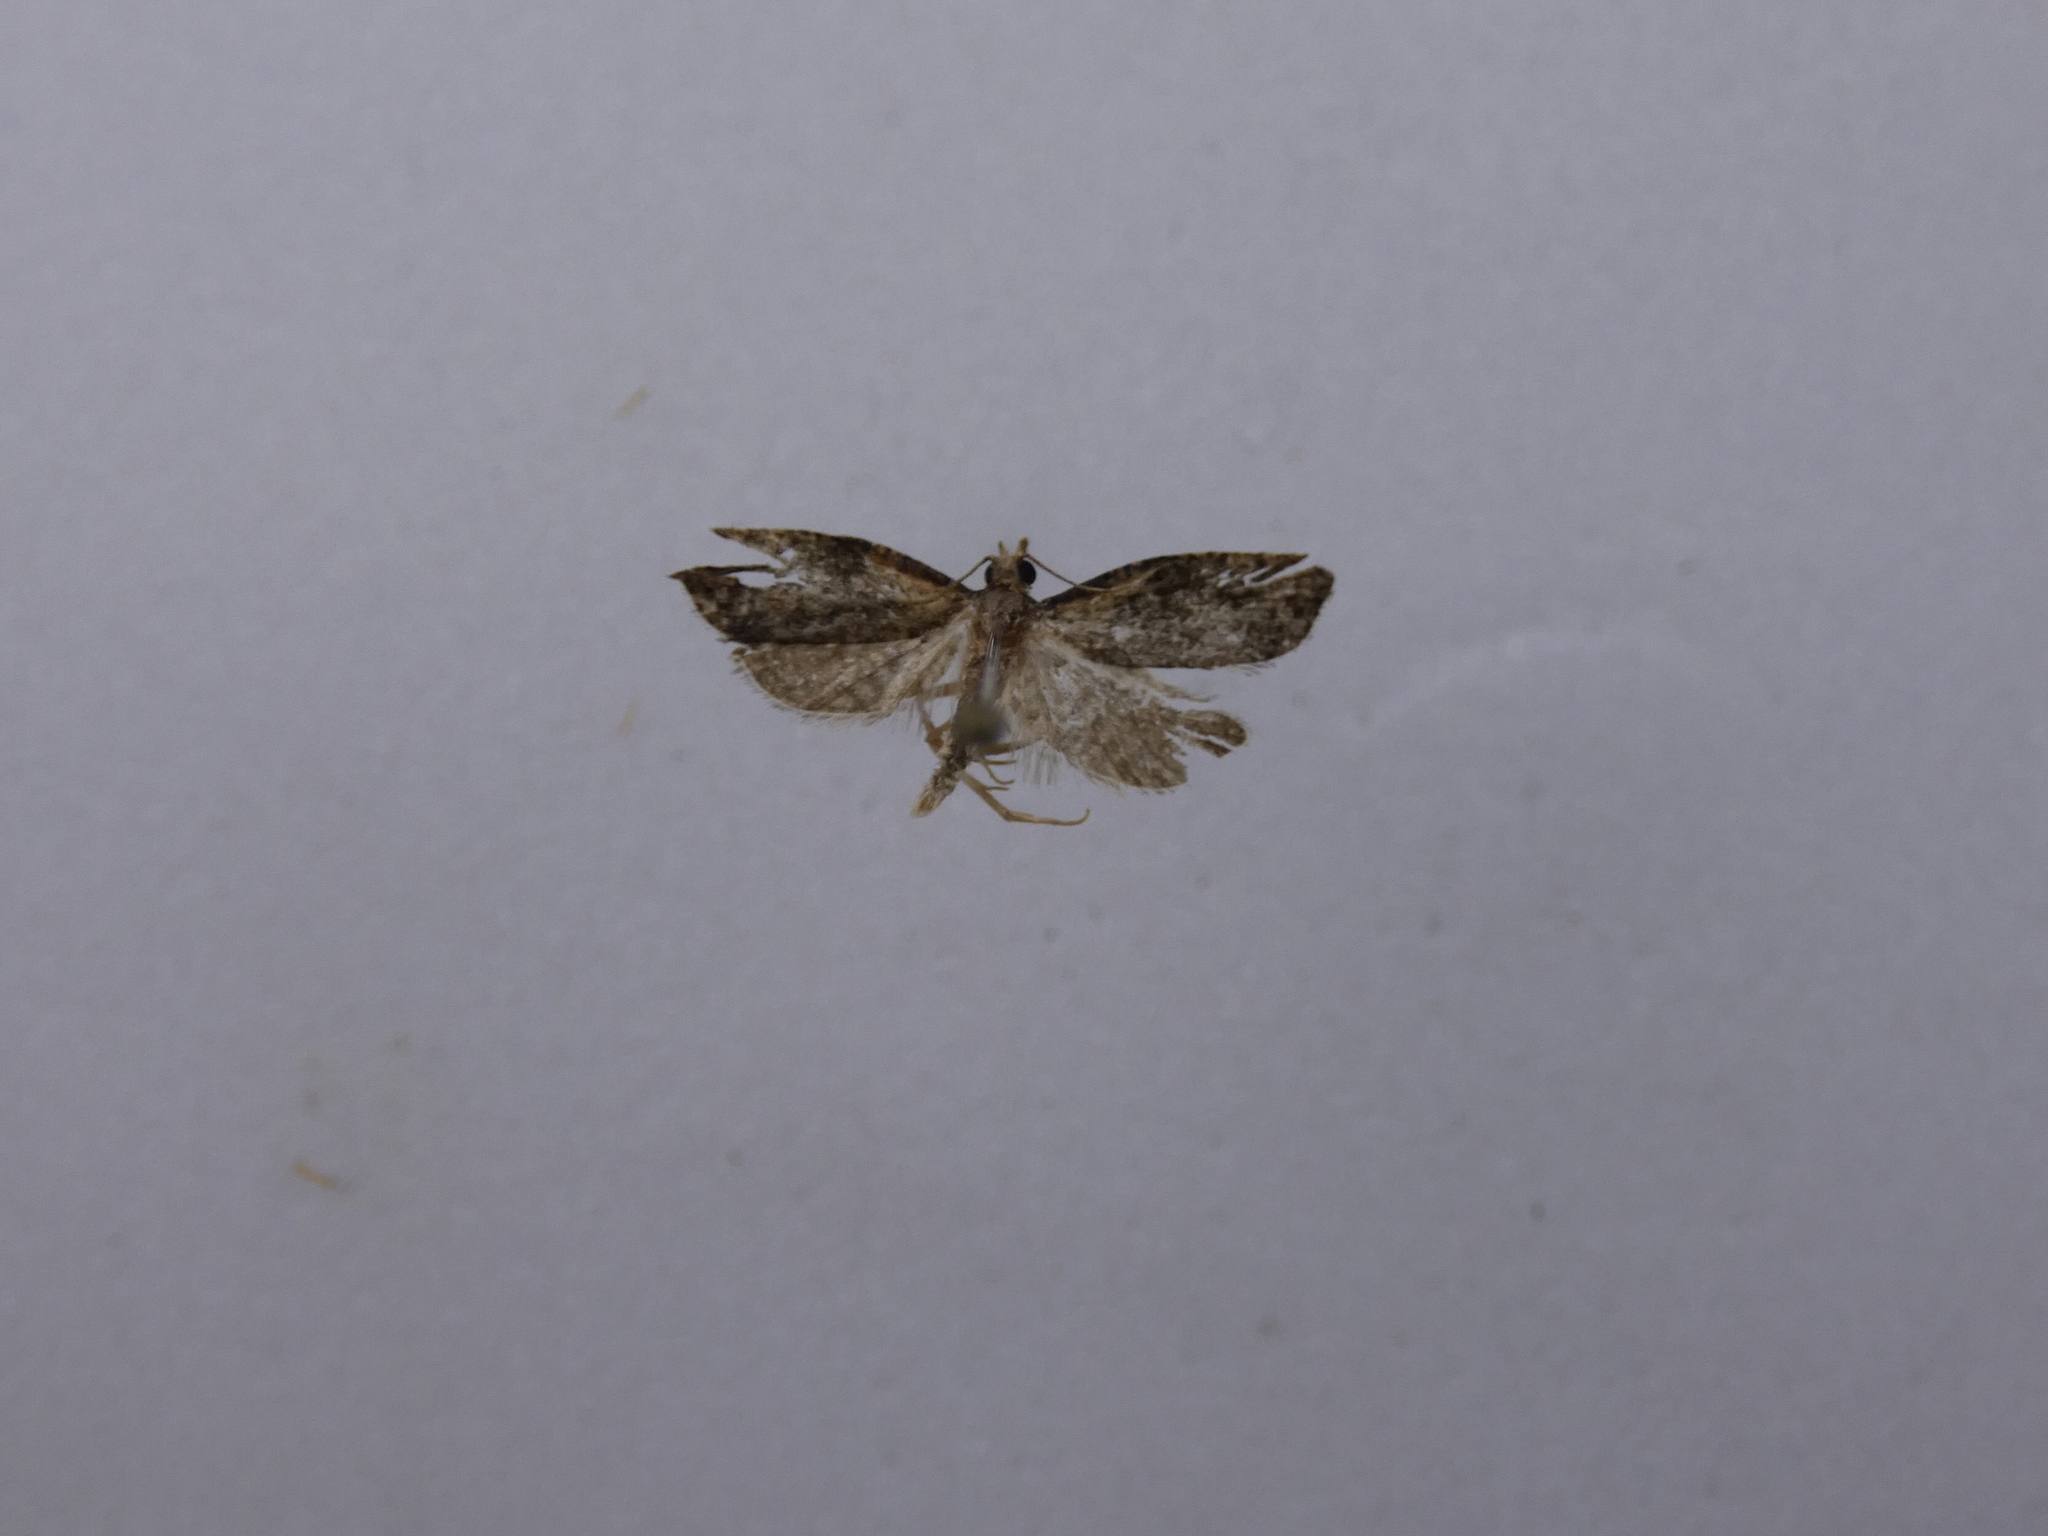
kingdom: Animalia
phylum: Arthropoda
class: Insecta
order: Lepidoptera
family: Tortricidae
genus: Capua
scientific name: Capua intractana
